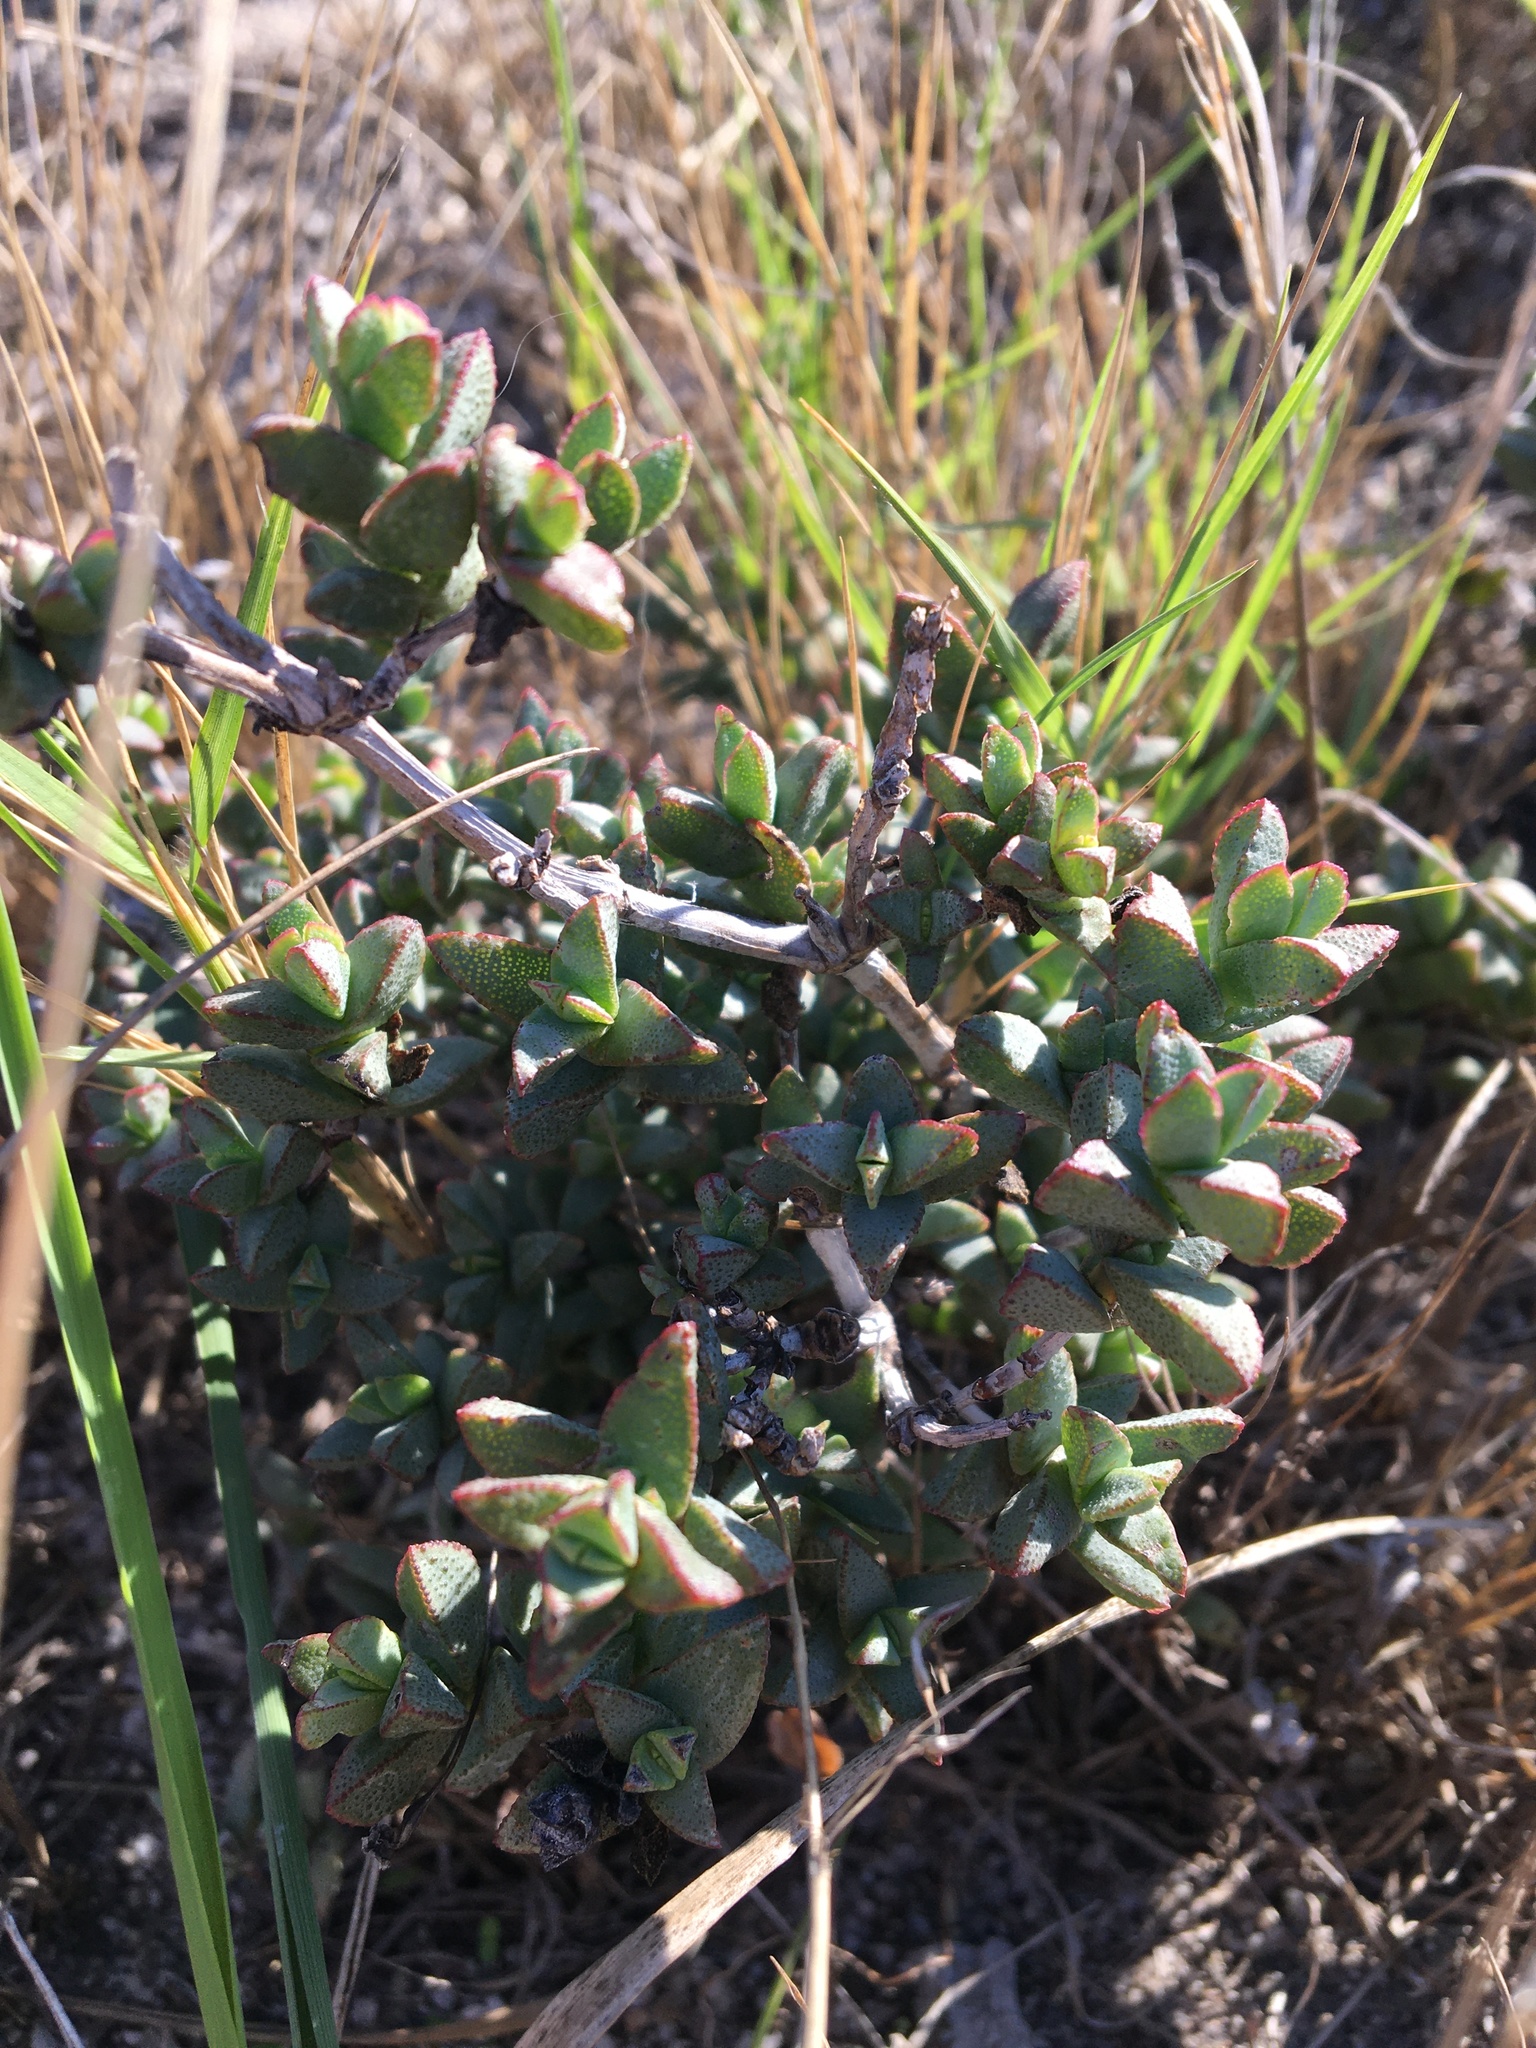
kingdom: Plantae
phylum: Tracheophyta
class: Magnoliopsida
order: Caryophyllales
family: Aizoaceae
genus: Lampranthus
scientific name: Lampranthus glaucus
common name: Noonflower
